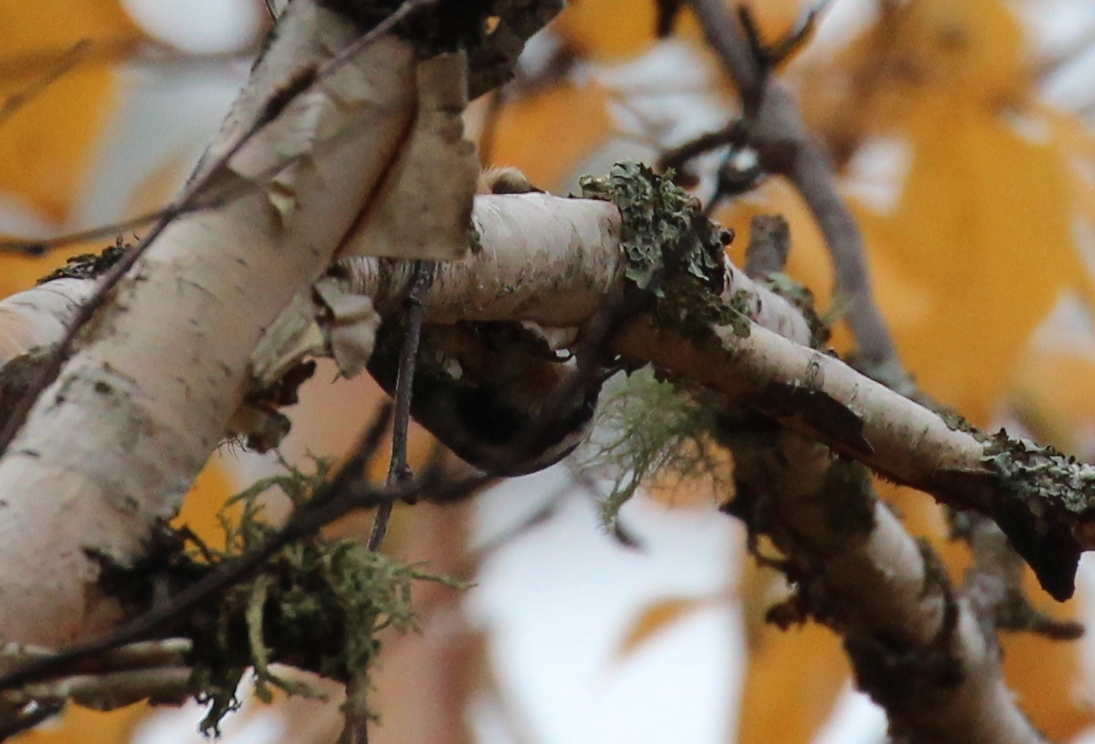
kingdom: Animalia
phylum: Chordata
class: Aves
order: Passeriformes
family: Sittidae
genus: Sitta
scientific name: Sitta canadensis
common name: Red-breasted nuthatch
